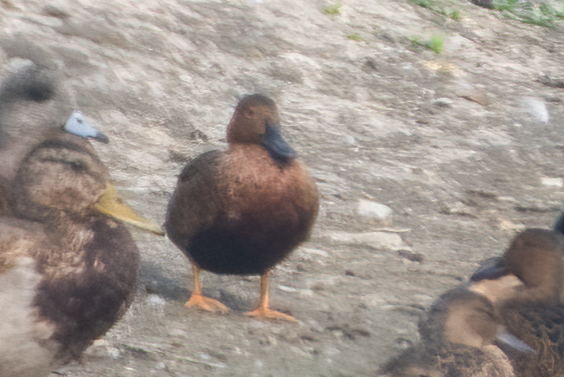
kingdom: Animalia
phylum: Chordata
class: Aves
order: Anseriformes
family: Anatidae
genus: Spatula
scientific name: Spatula cyanoptera
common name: Cinnamon teal
